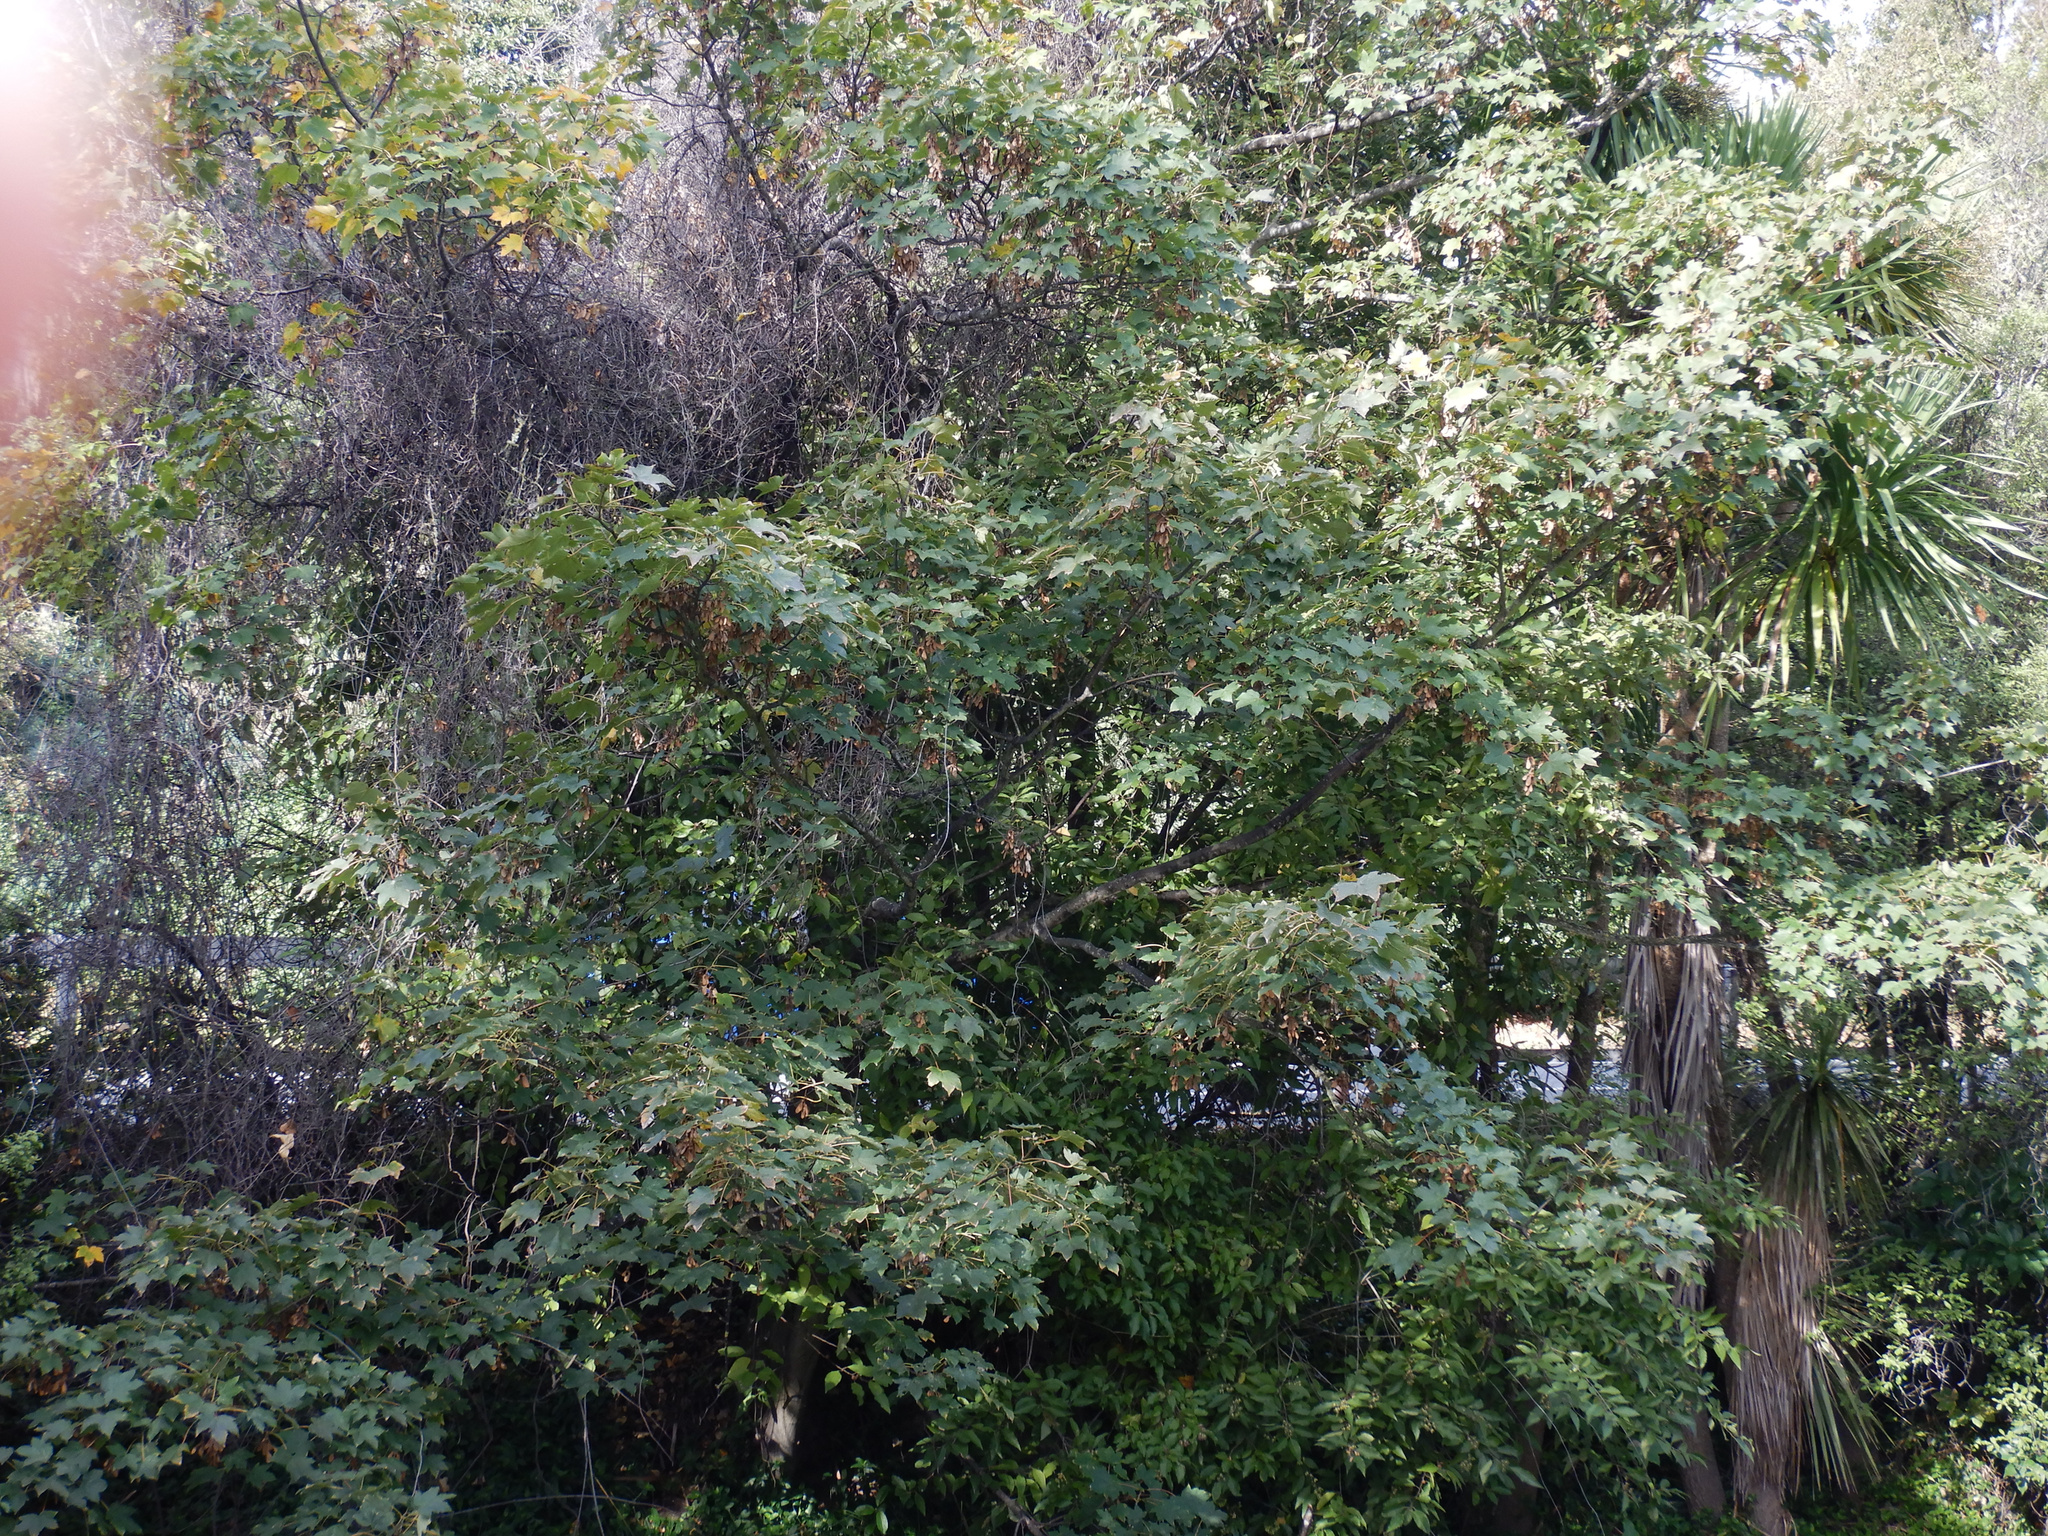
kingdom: Plantae
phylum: Tracheophyta
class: Magnoliopsida
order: Sapindales
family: Sapindaceae
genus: Acer
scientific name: Acer pseudoplatanus
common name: Sycamore
